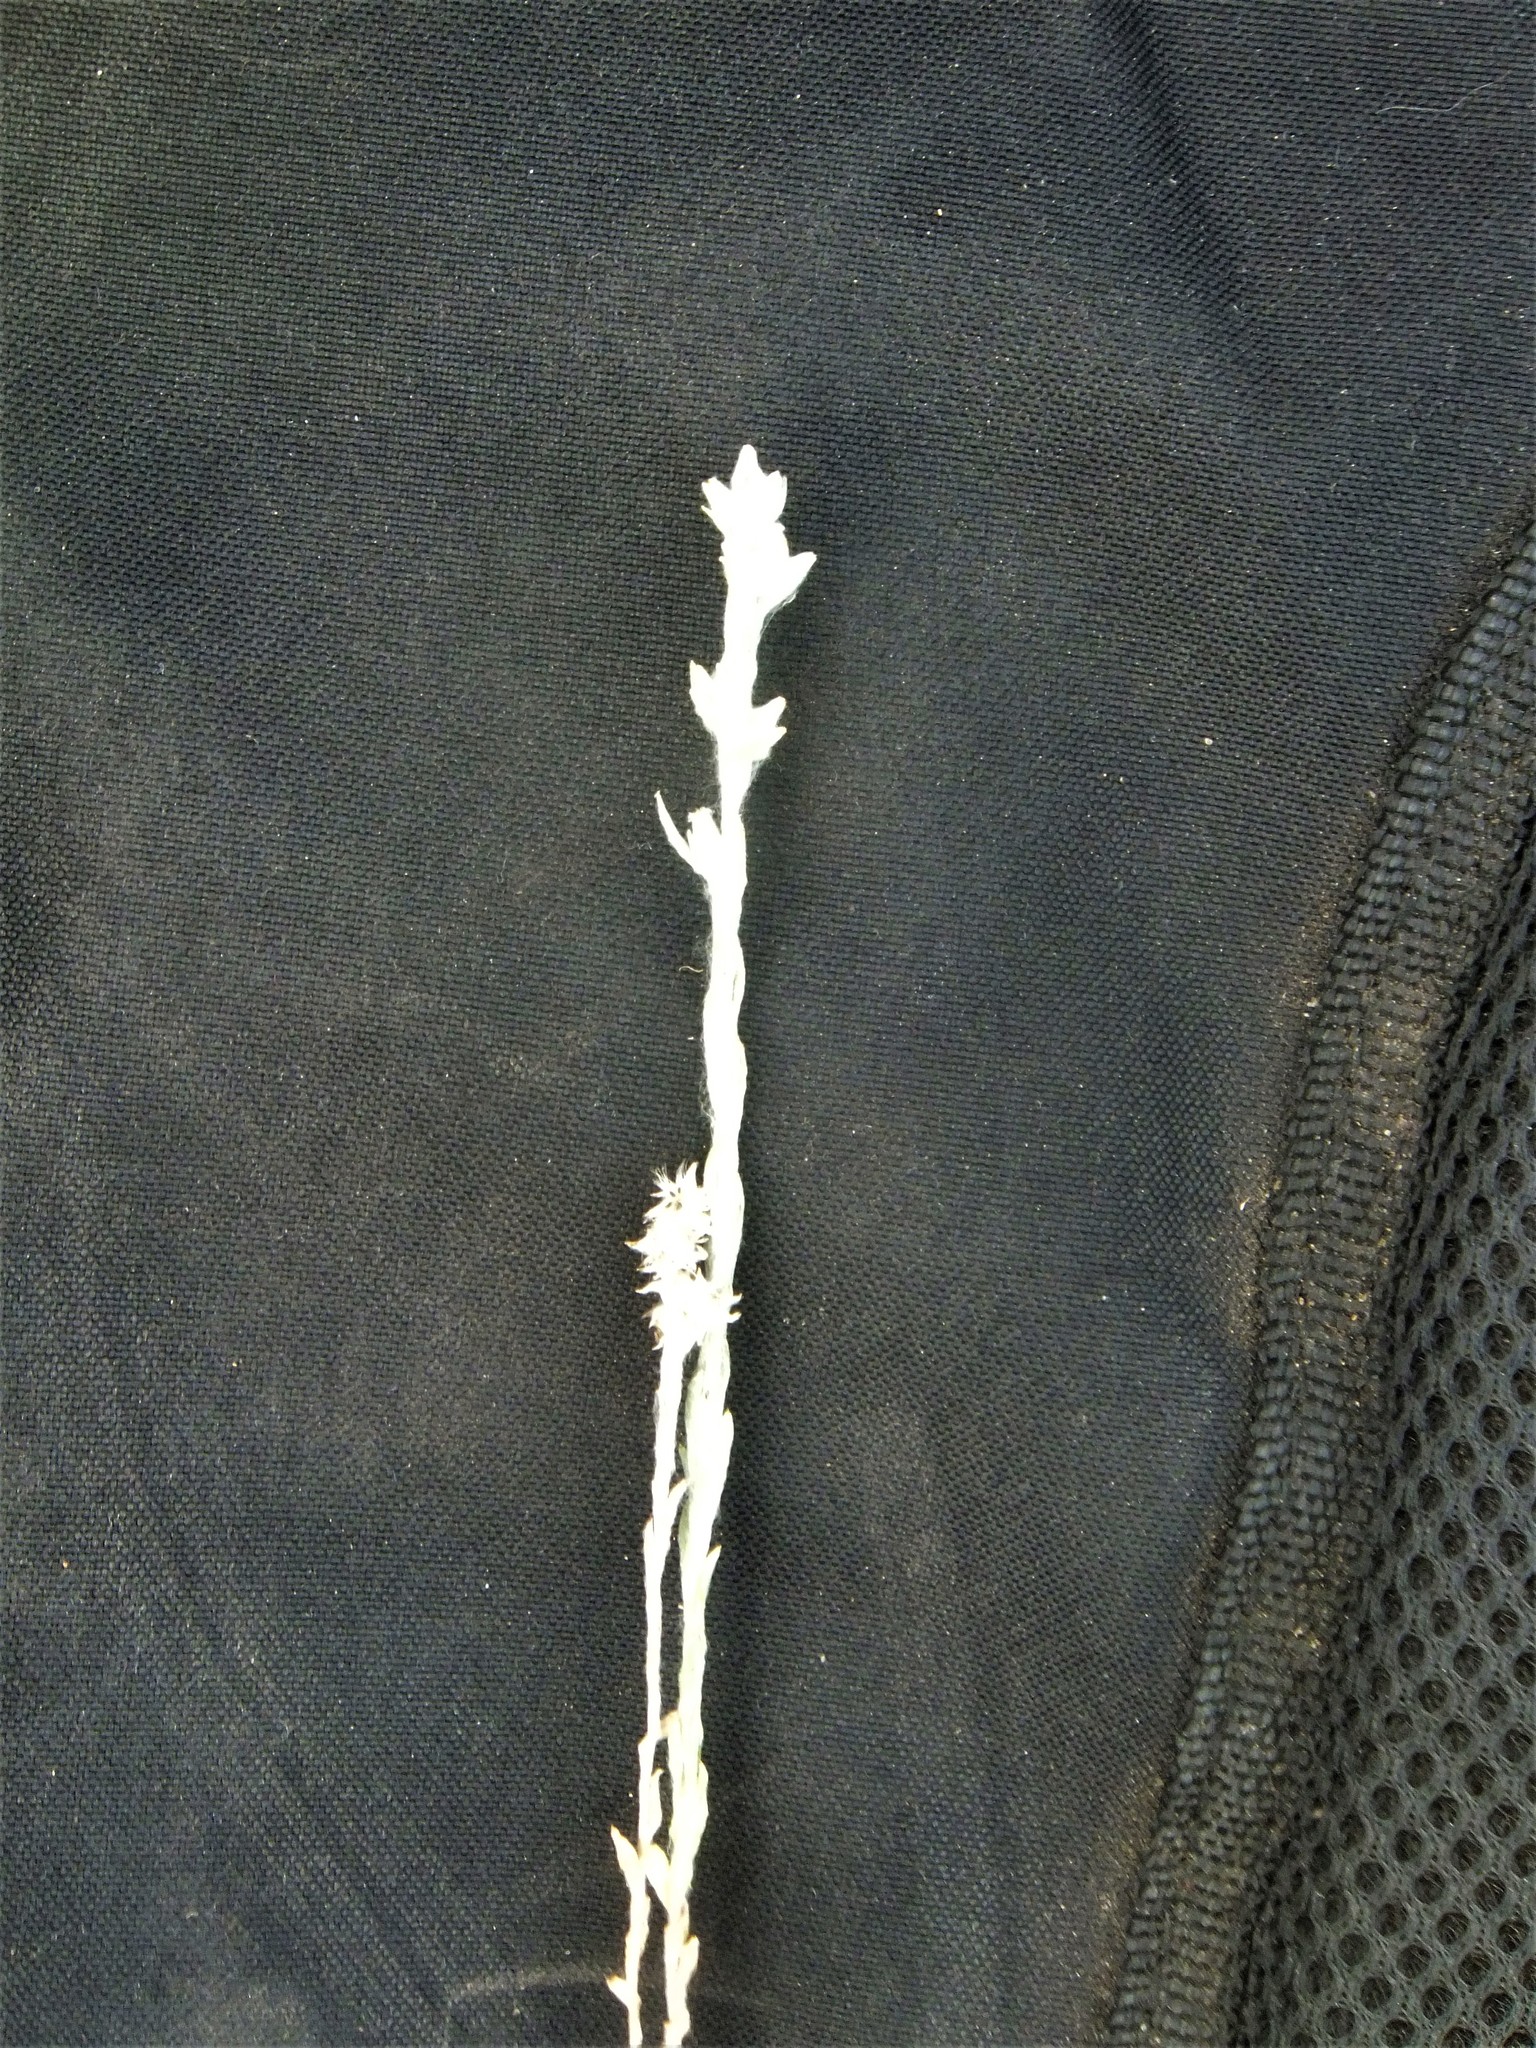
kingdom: Plantae
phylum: Tracheophyta
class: Magnoliopsida
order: Asterales
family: Asteraceae
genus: Filago
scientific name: Filago arvensis
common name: Field cudweed
